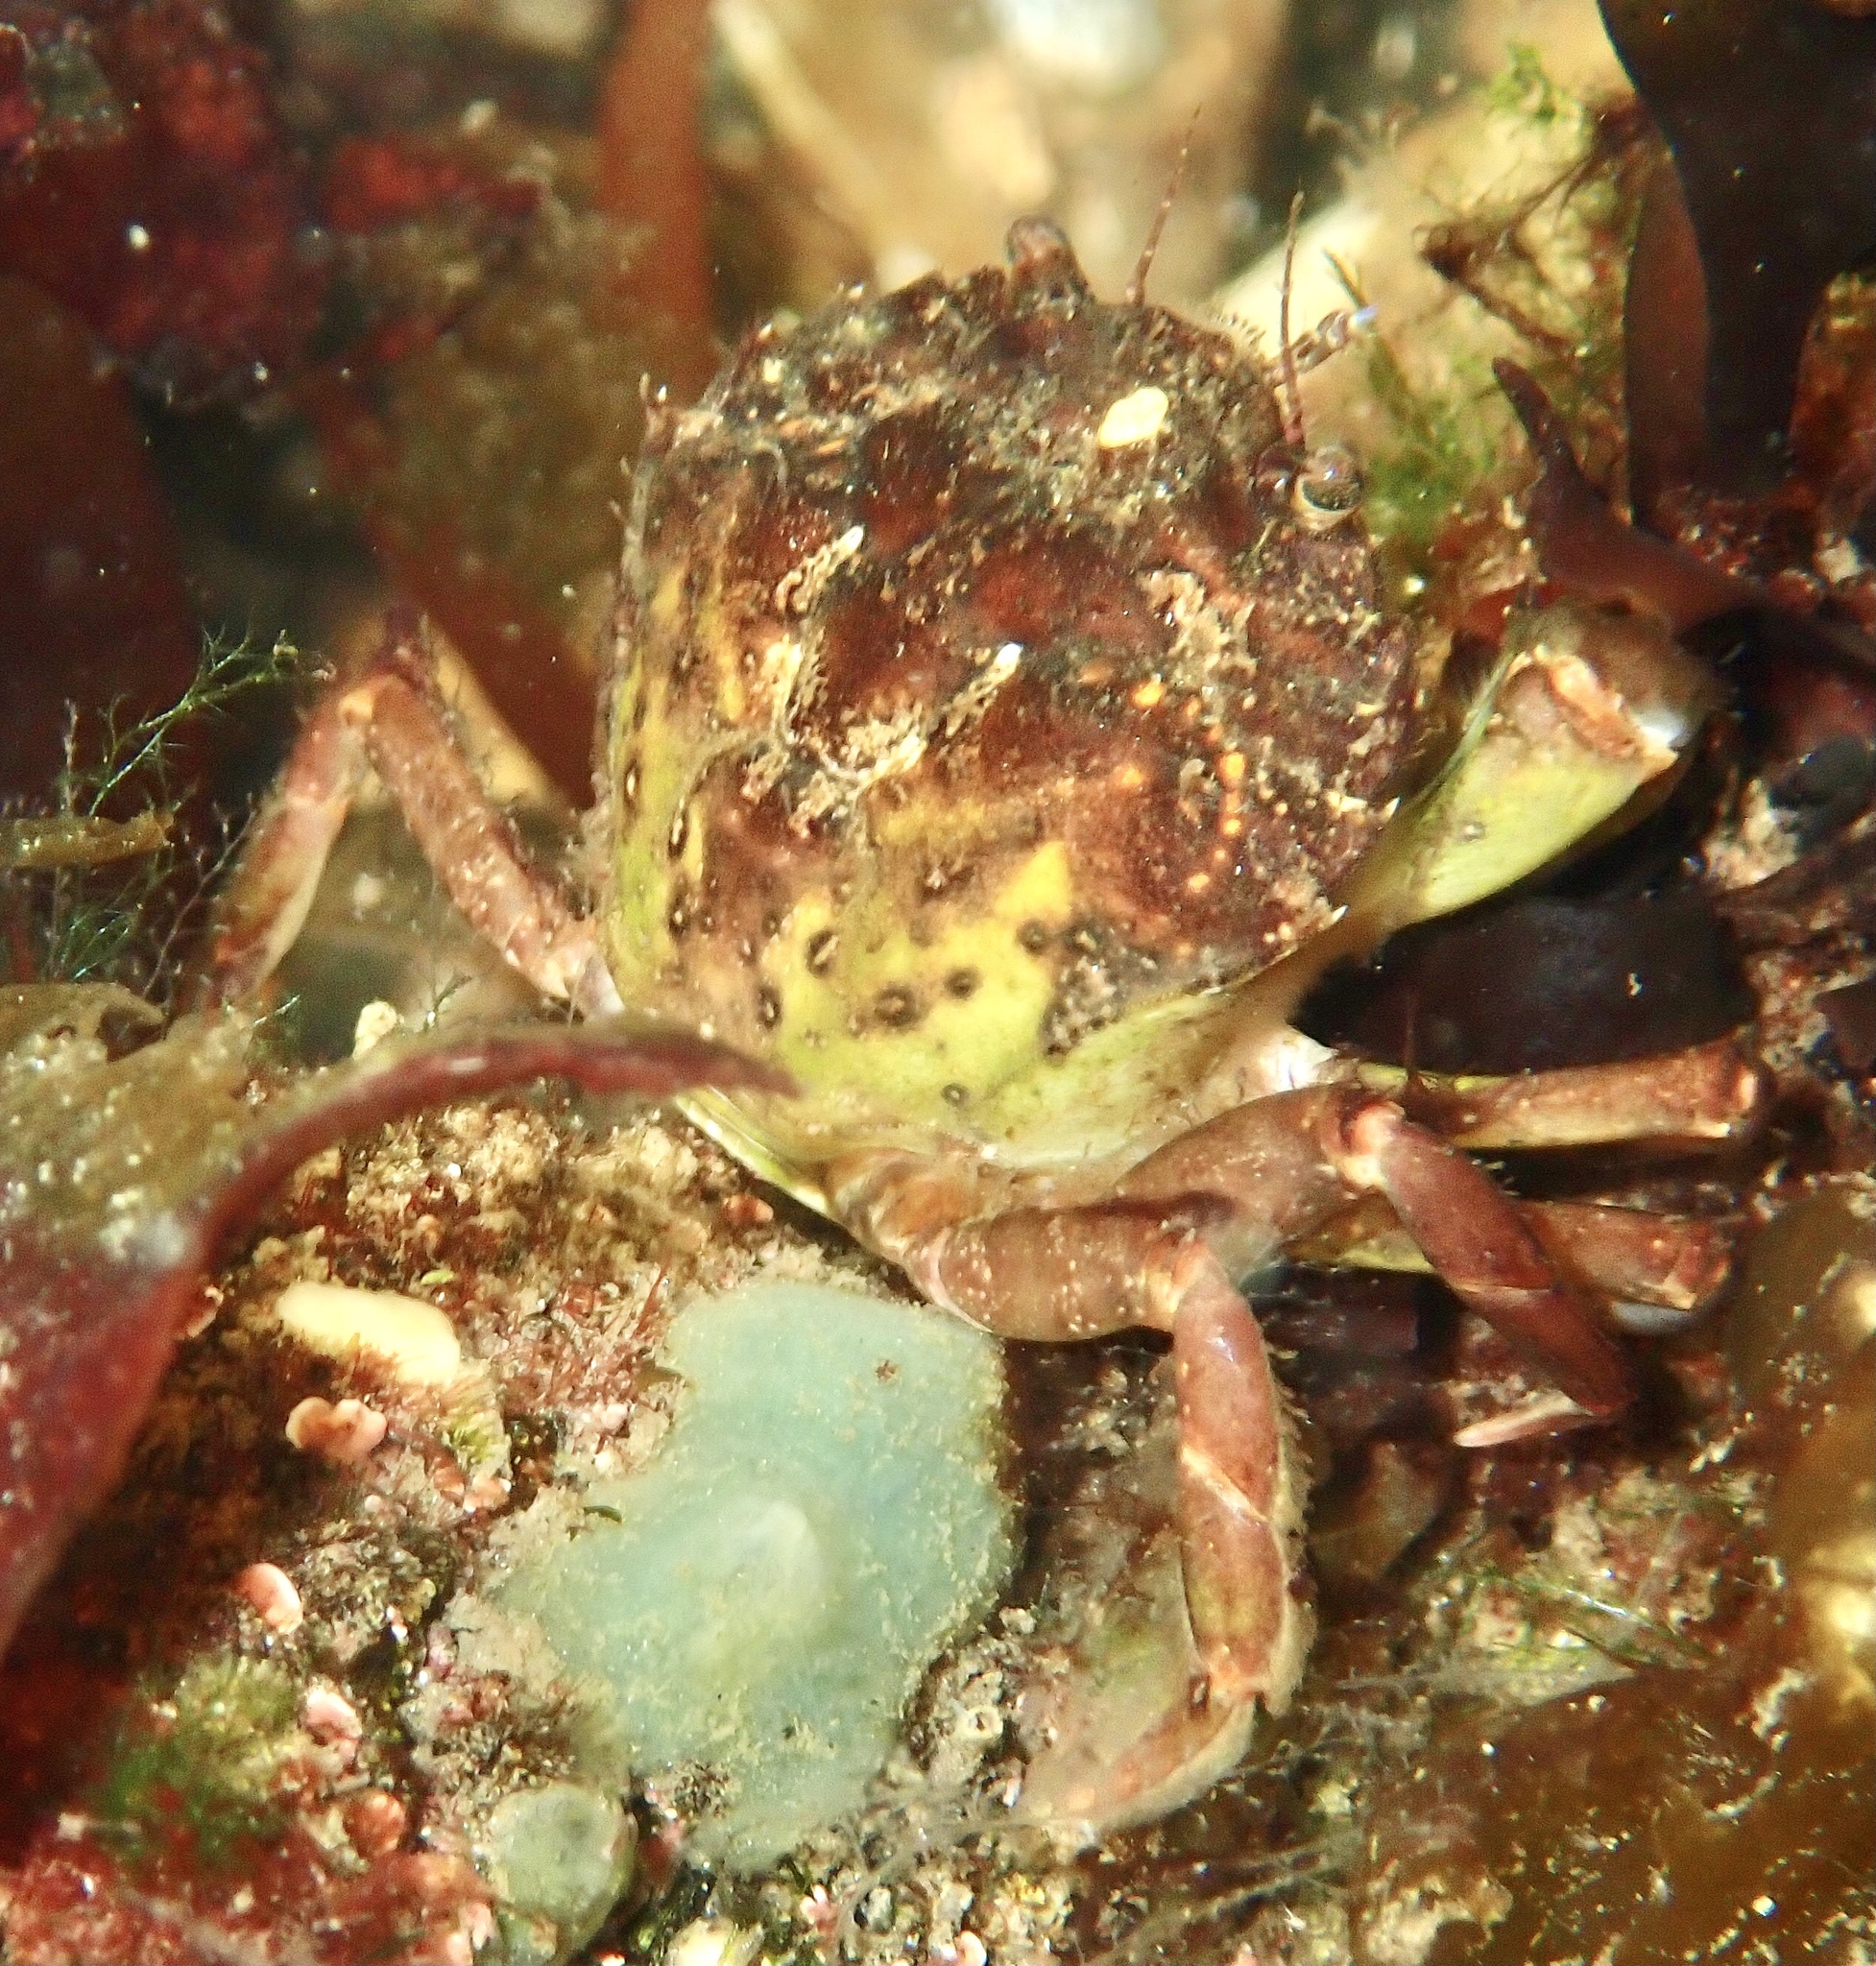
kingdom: Animalia
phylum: Arthropoda
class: Malacostraca
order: Decapoda
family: Carcinidae
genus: Carcinus
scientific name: Carcinus maenas
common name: European green crab
